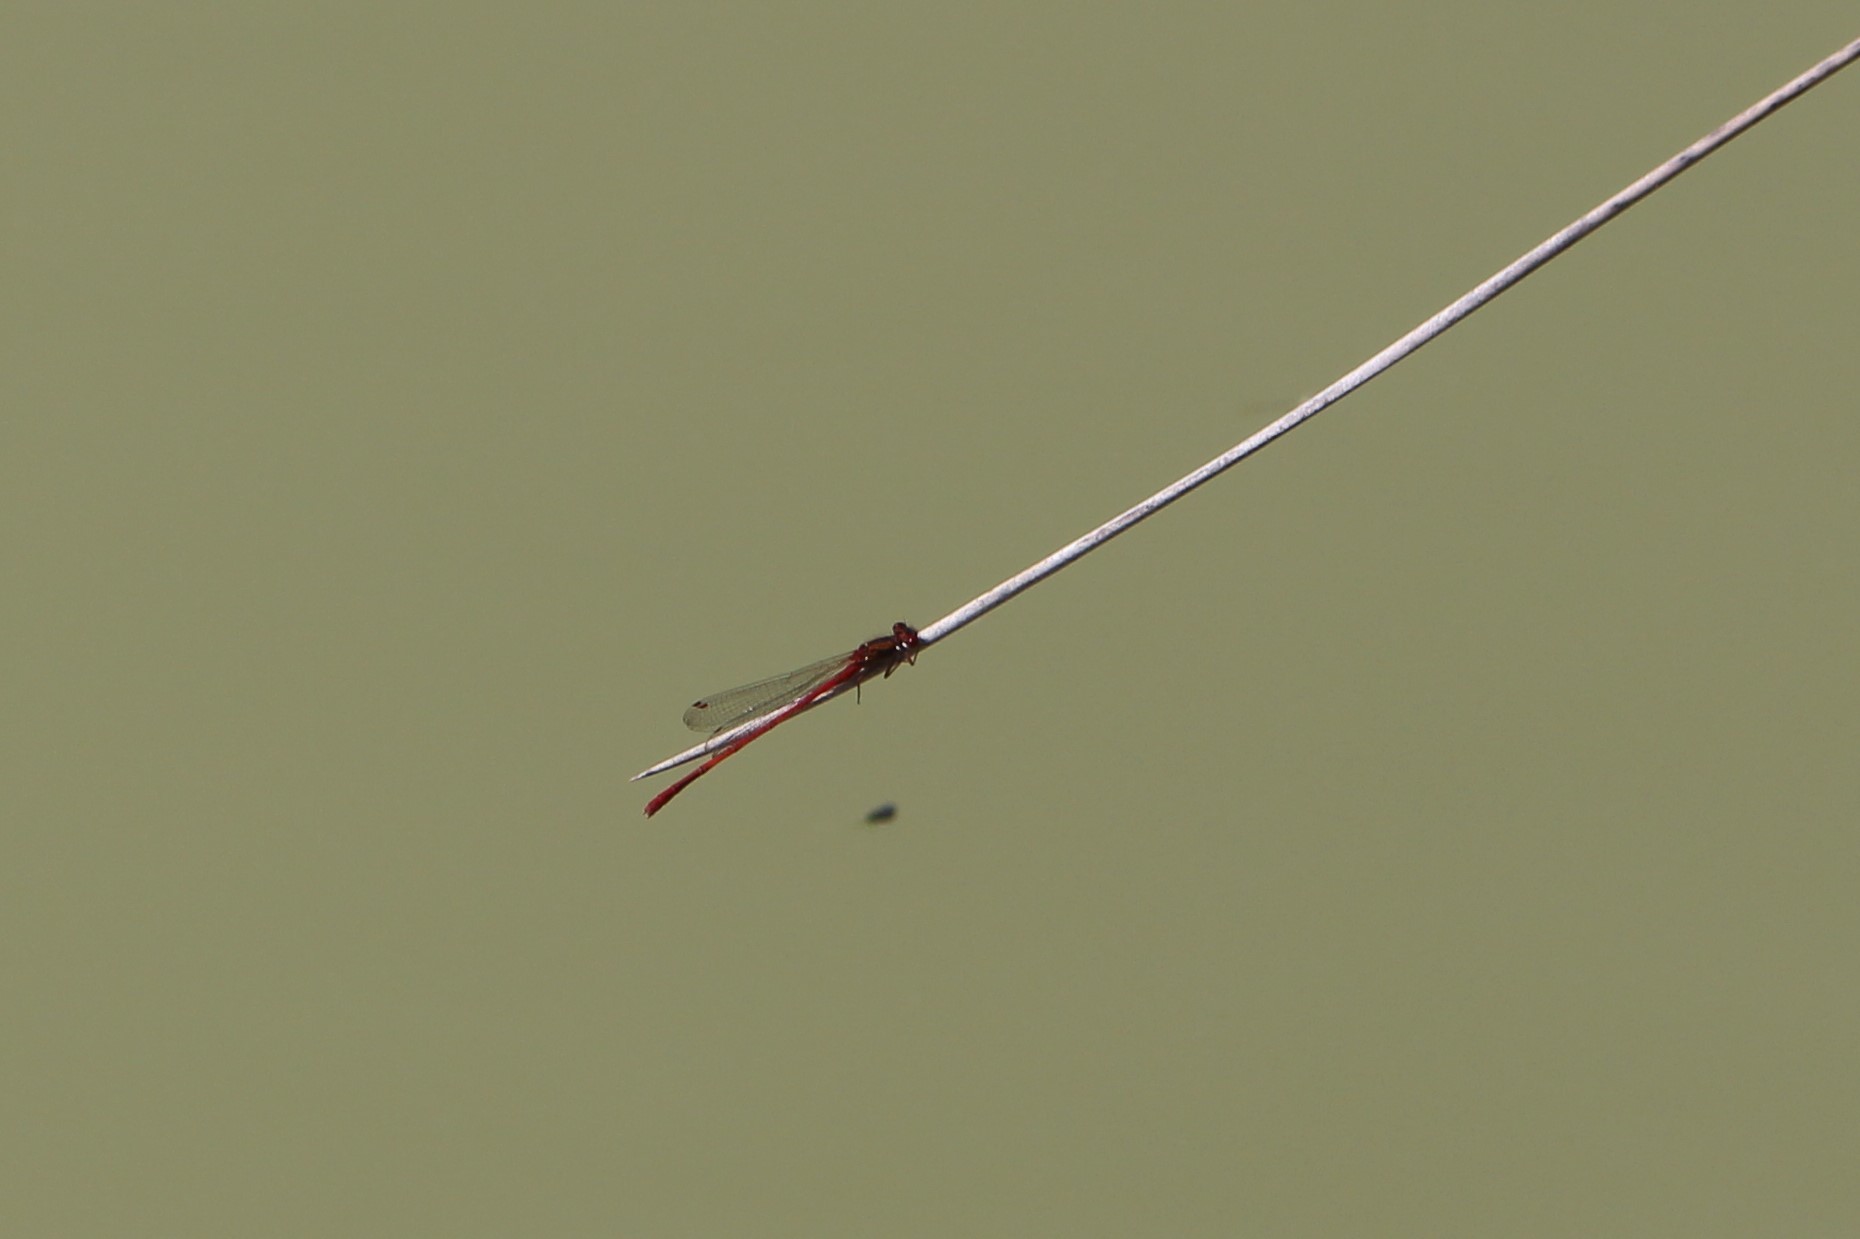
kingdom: Animalia
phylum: Arthropoda
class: Insecta
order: Odonata
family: Coenagrionidae
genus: Xanthocnemis
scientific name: Xanthocnemis zealandica
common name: Common redcoat damselfly
